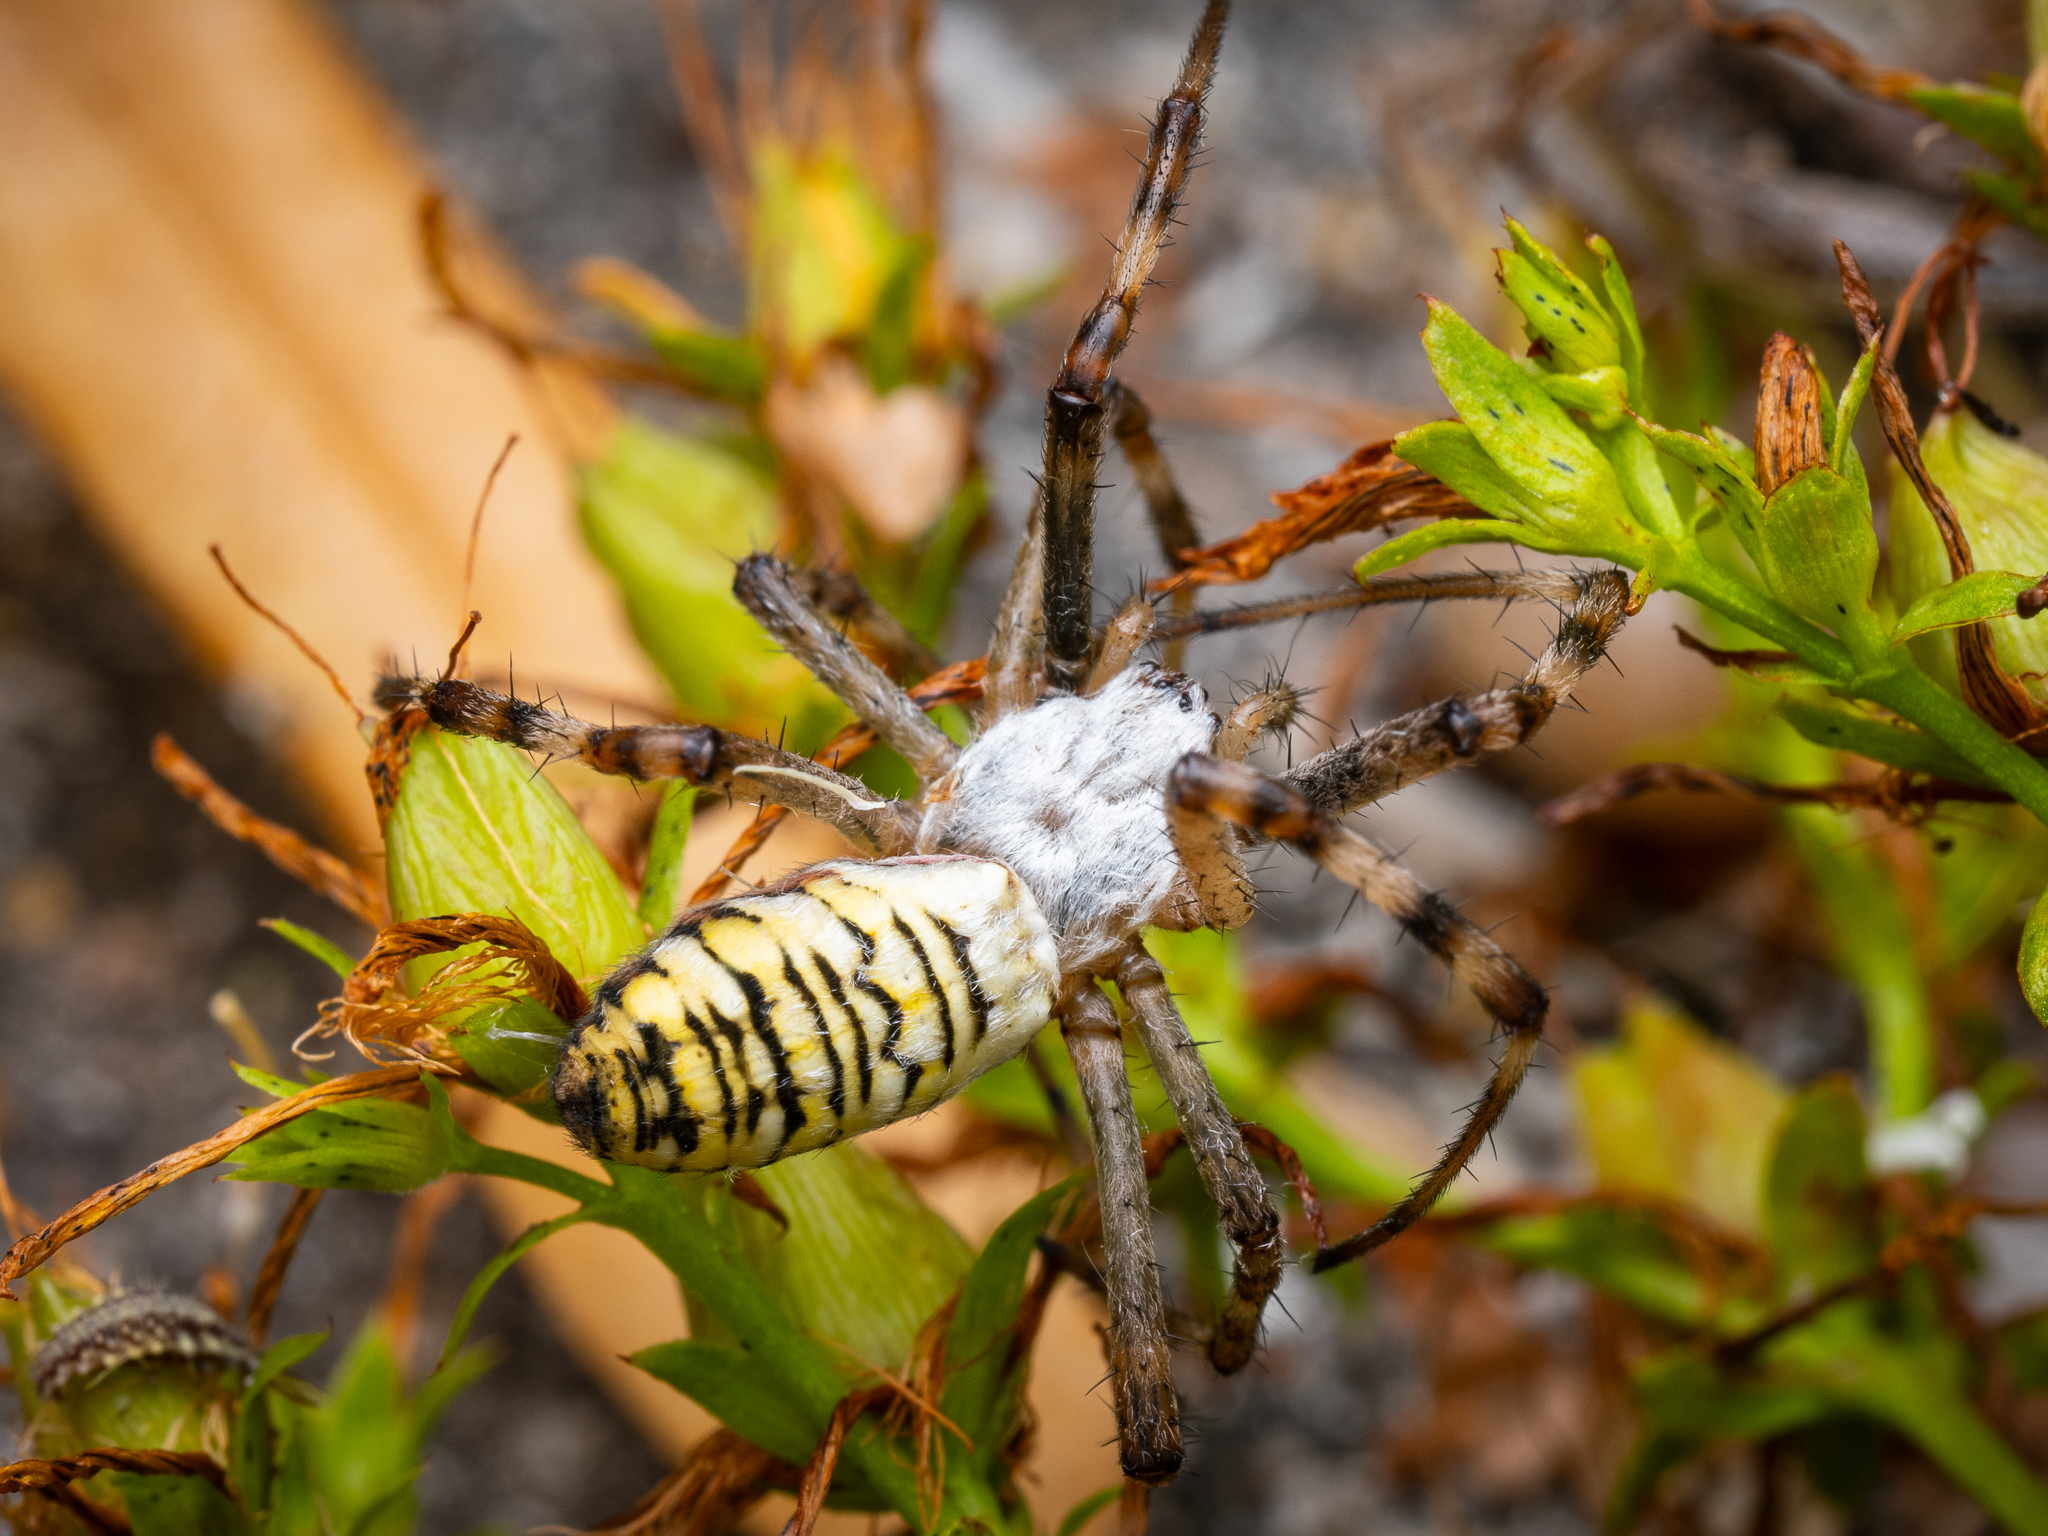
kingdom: Animalia
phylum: Arthropoda
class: Arachnida
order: Araneae
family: Araneidae
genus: Argiope
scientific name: Argiope bruennichi
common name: Wasp spider
